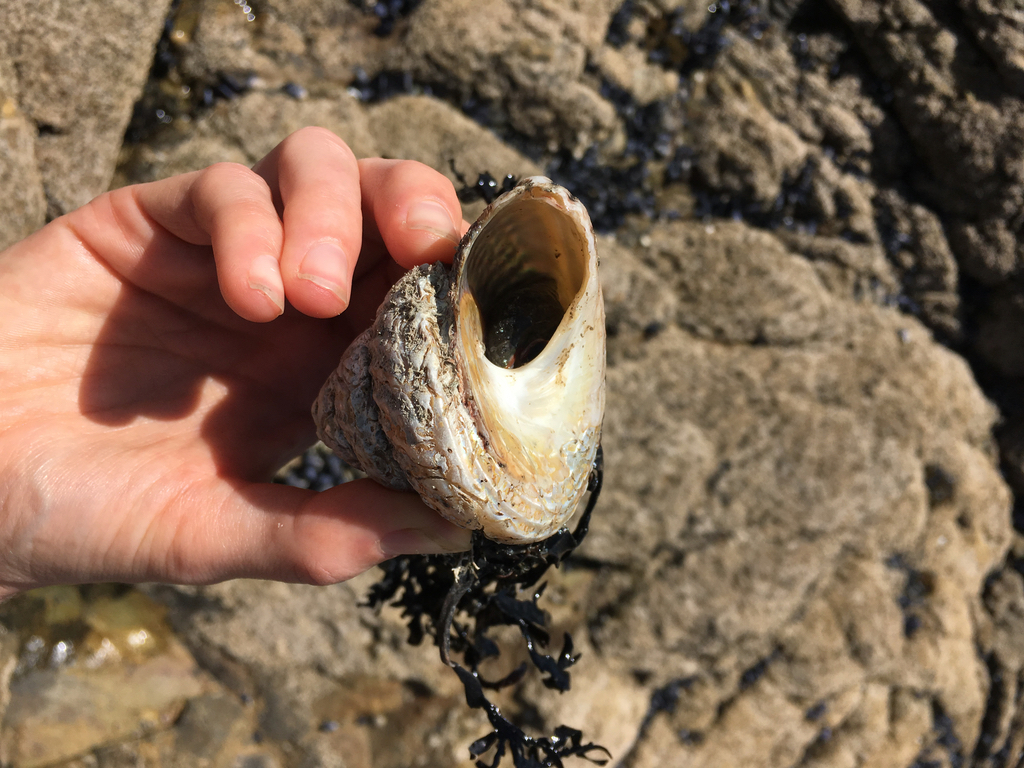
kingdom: Animalia
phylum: Mollusca
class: Gastropoda
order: Trochida
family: Turbinidae
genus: Cookia
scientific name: Cookia sulcata
